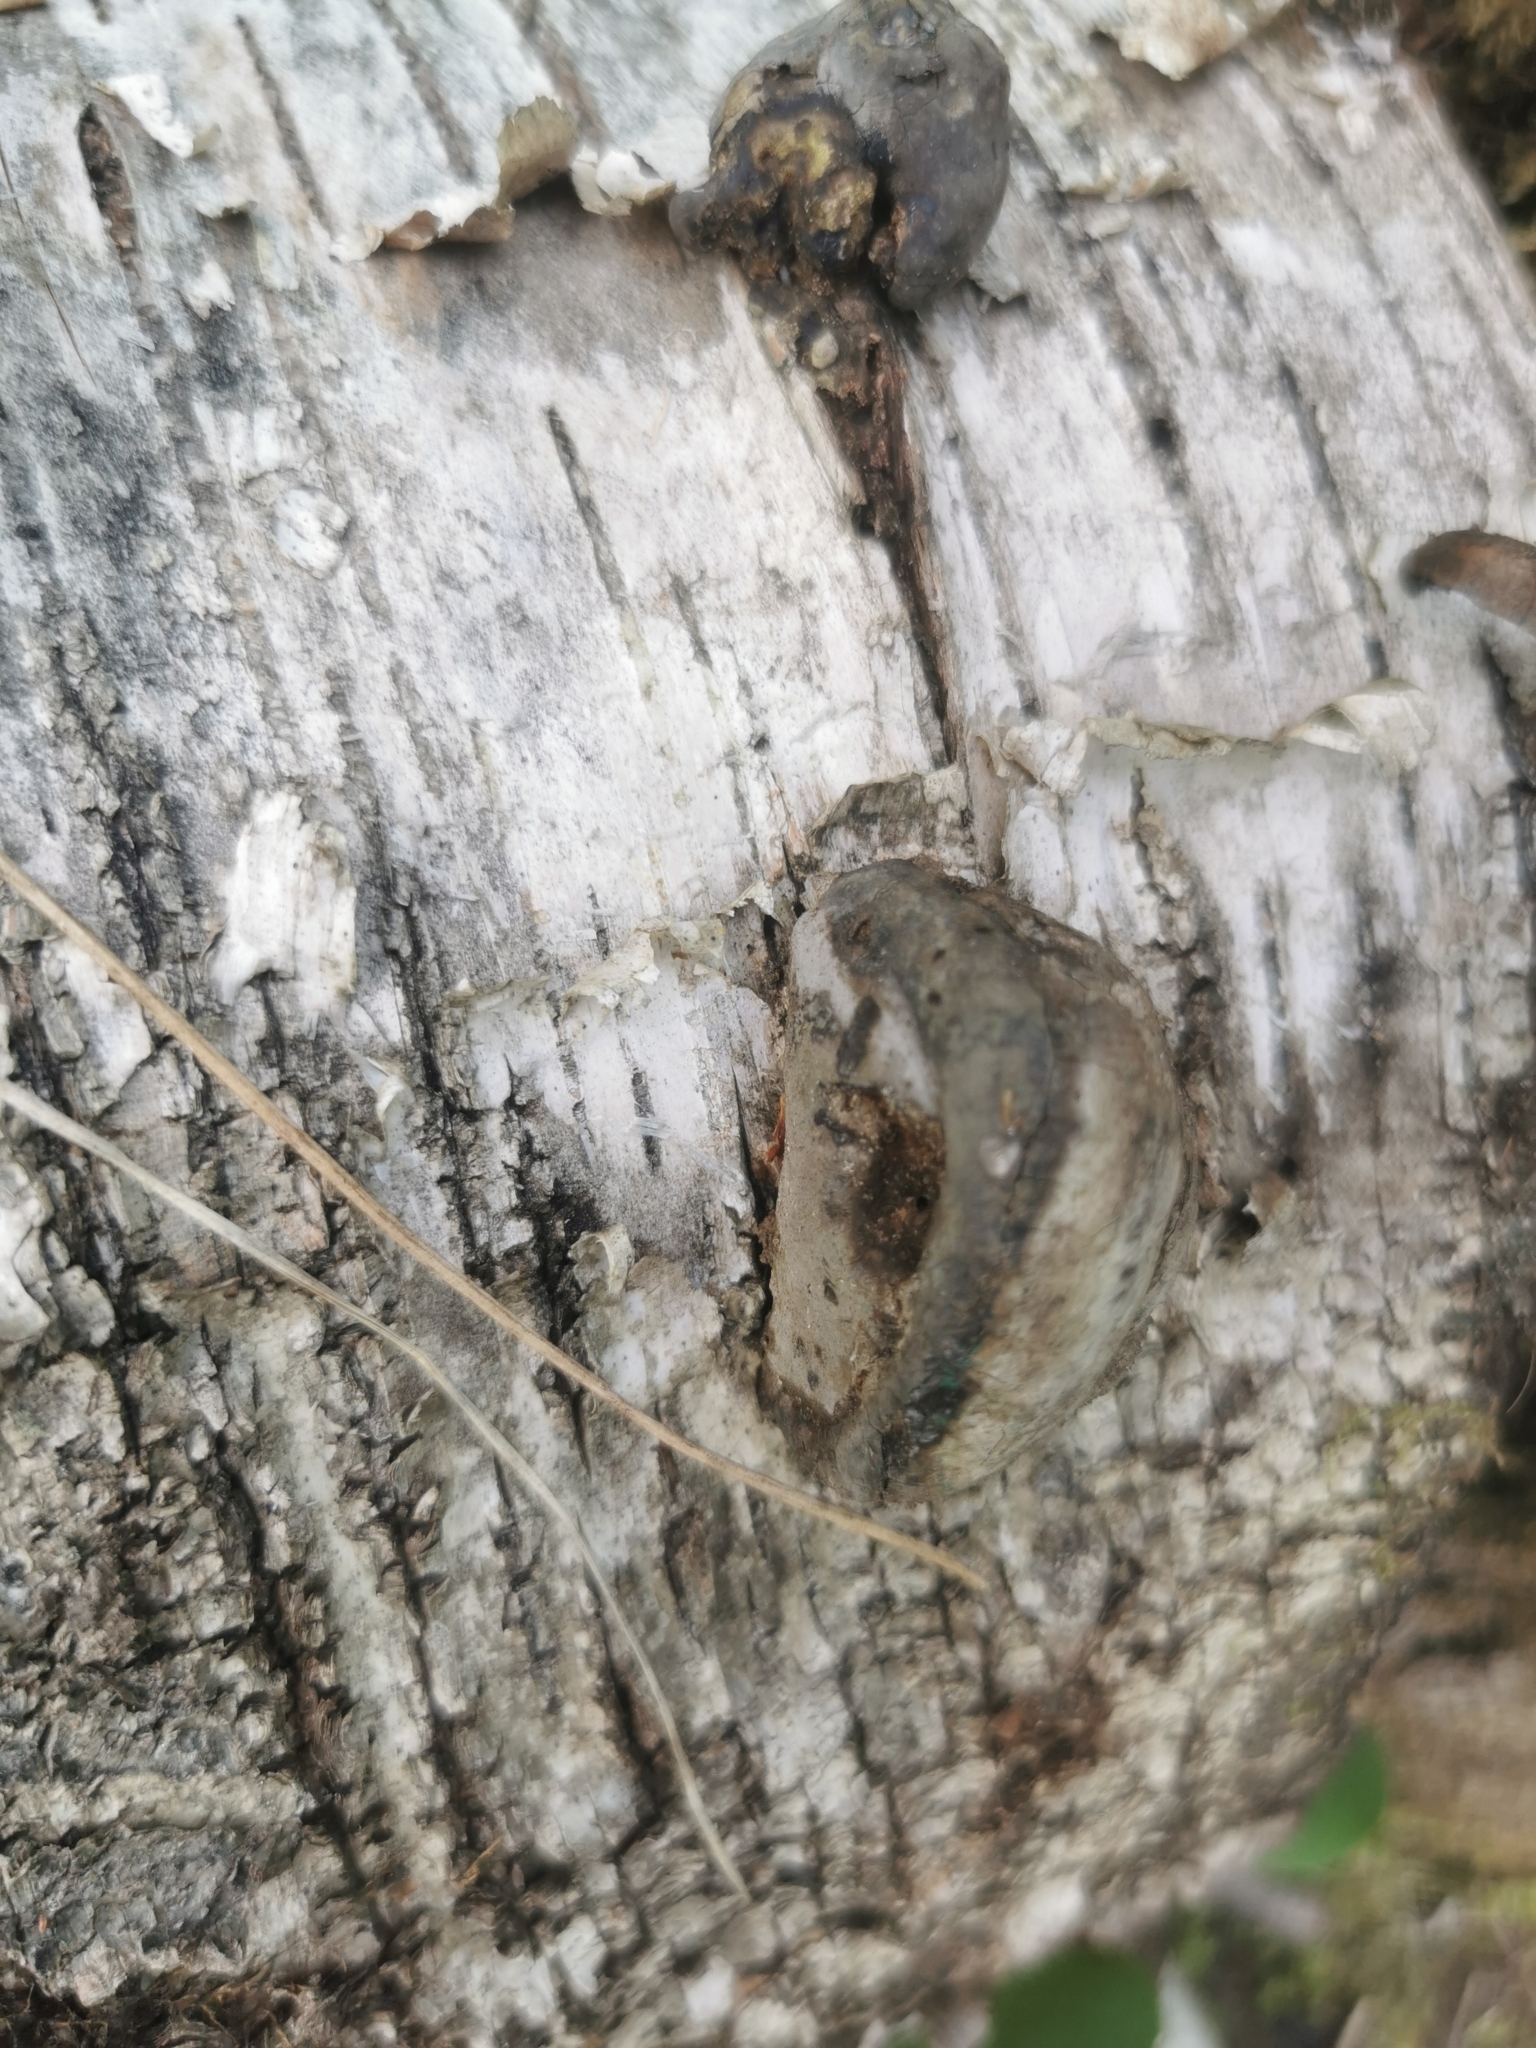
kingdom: Fungi
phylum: Basidiomycota
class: Agaricomycetes
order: Polyporales
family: Polyporaceae
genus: Fomes
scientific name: Fomes fomentarius
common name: Hoof fungus
